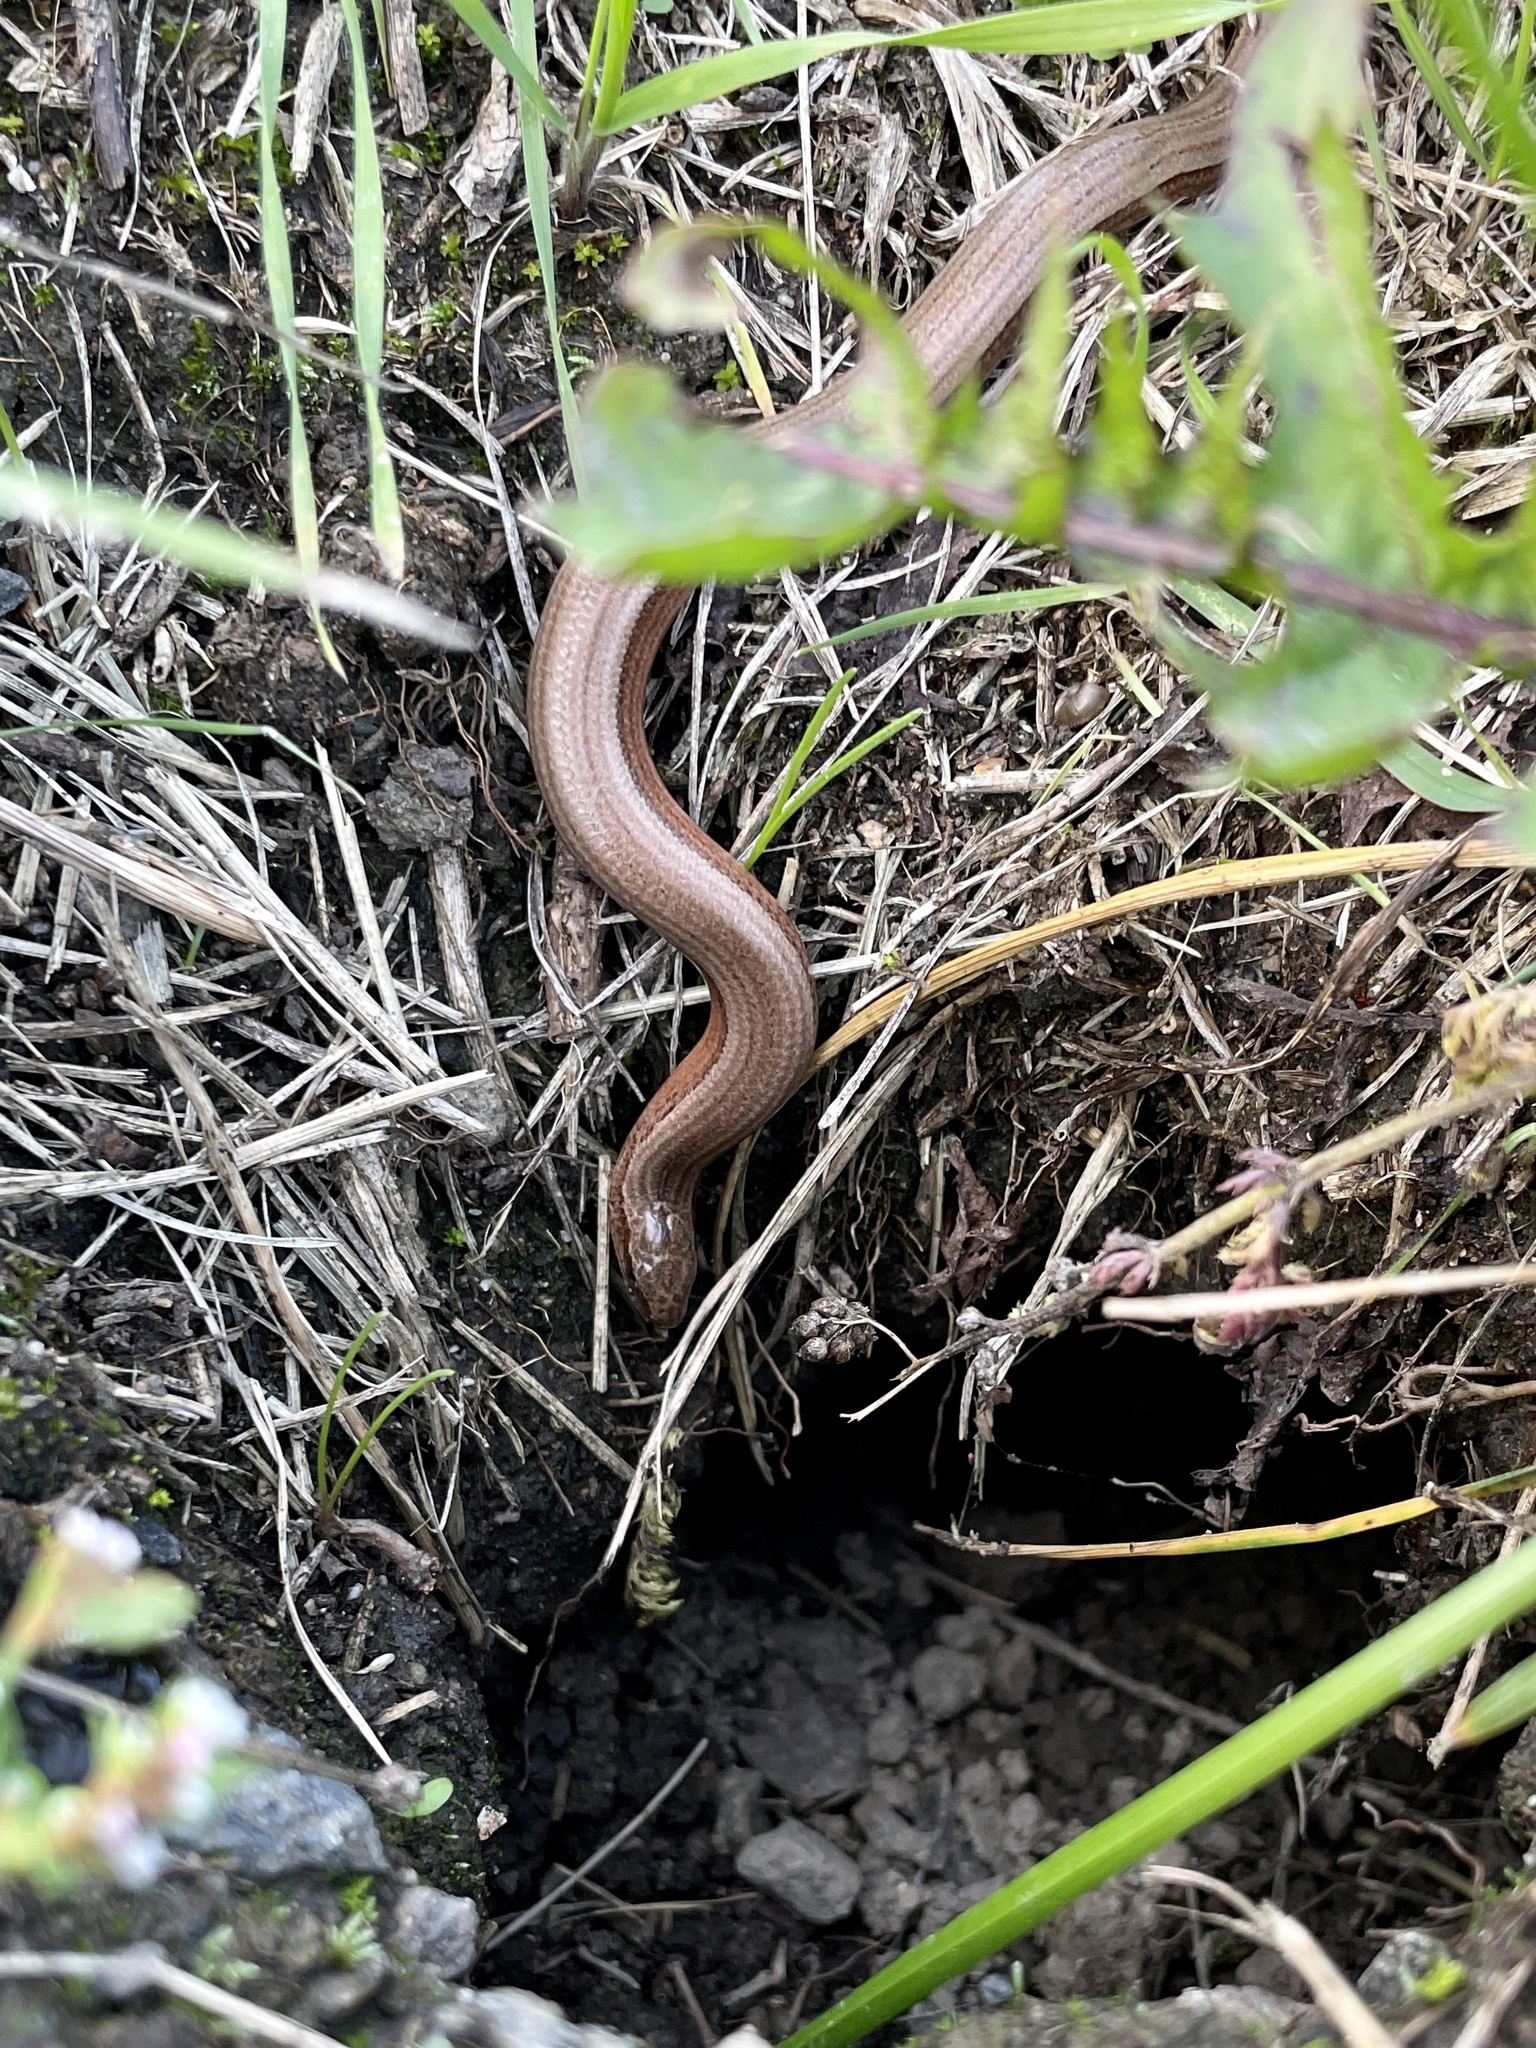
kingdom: Animalia
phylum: Chordata
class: Squamata
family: Anguidae
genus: Anguis
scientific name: Anguis fragilis
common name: Slow worm
